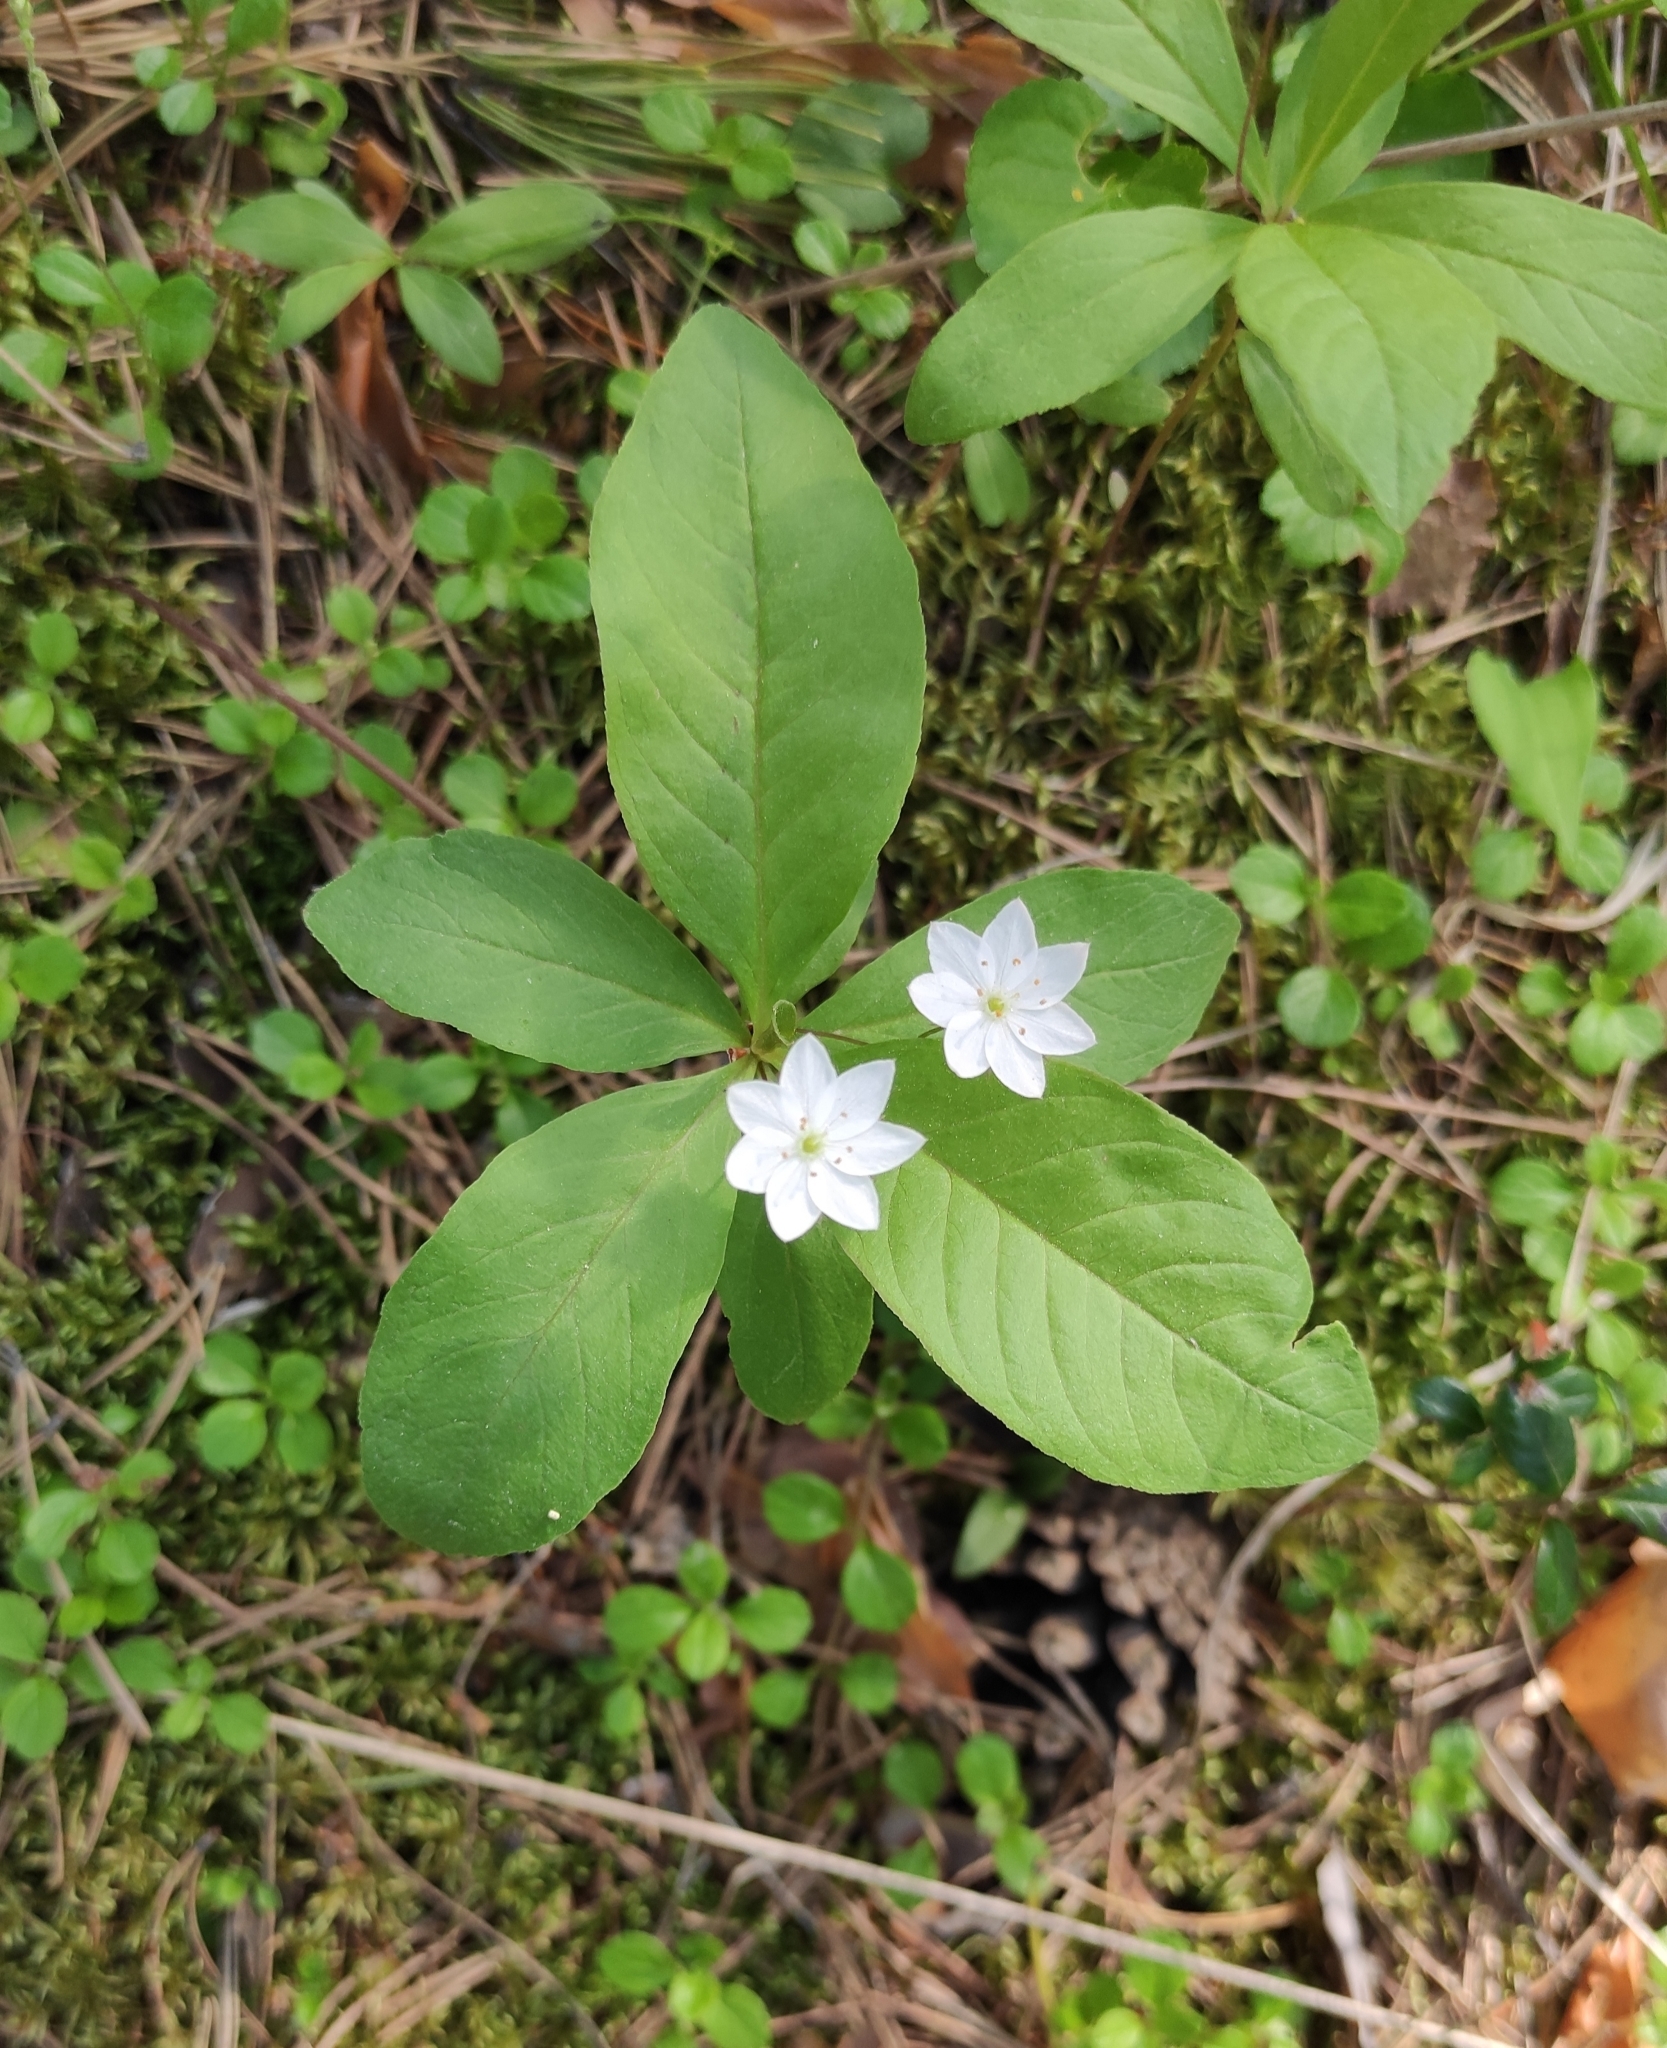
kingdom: Plantae
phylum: Tracheophyta
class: Magnoliopsida
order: Ericales
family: Primulaceae
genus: Lysimachia
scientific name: Lysimachia europaea
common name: Arctic starflower
